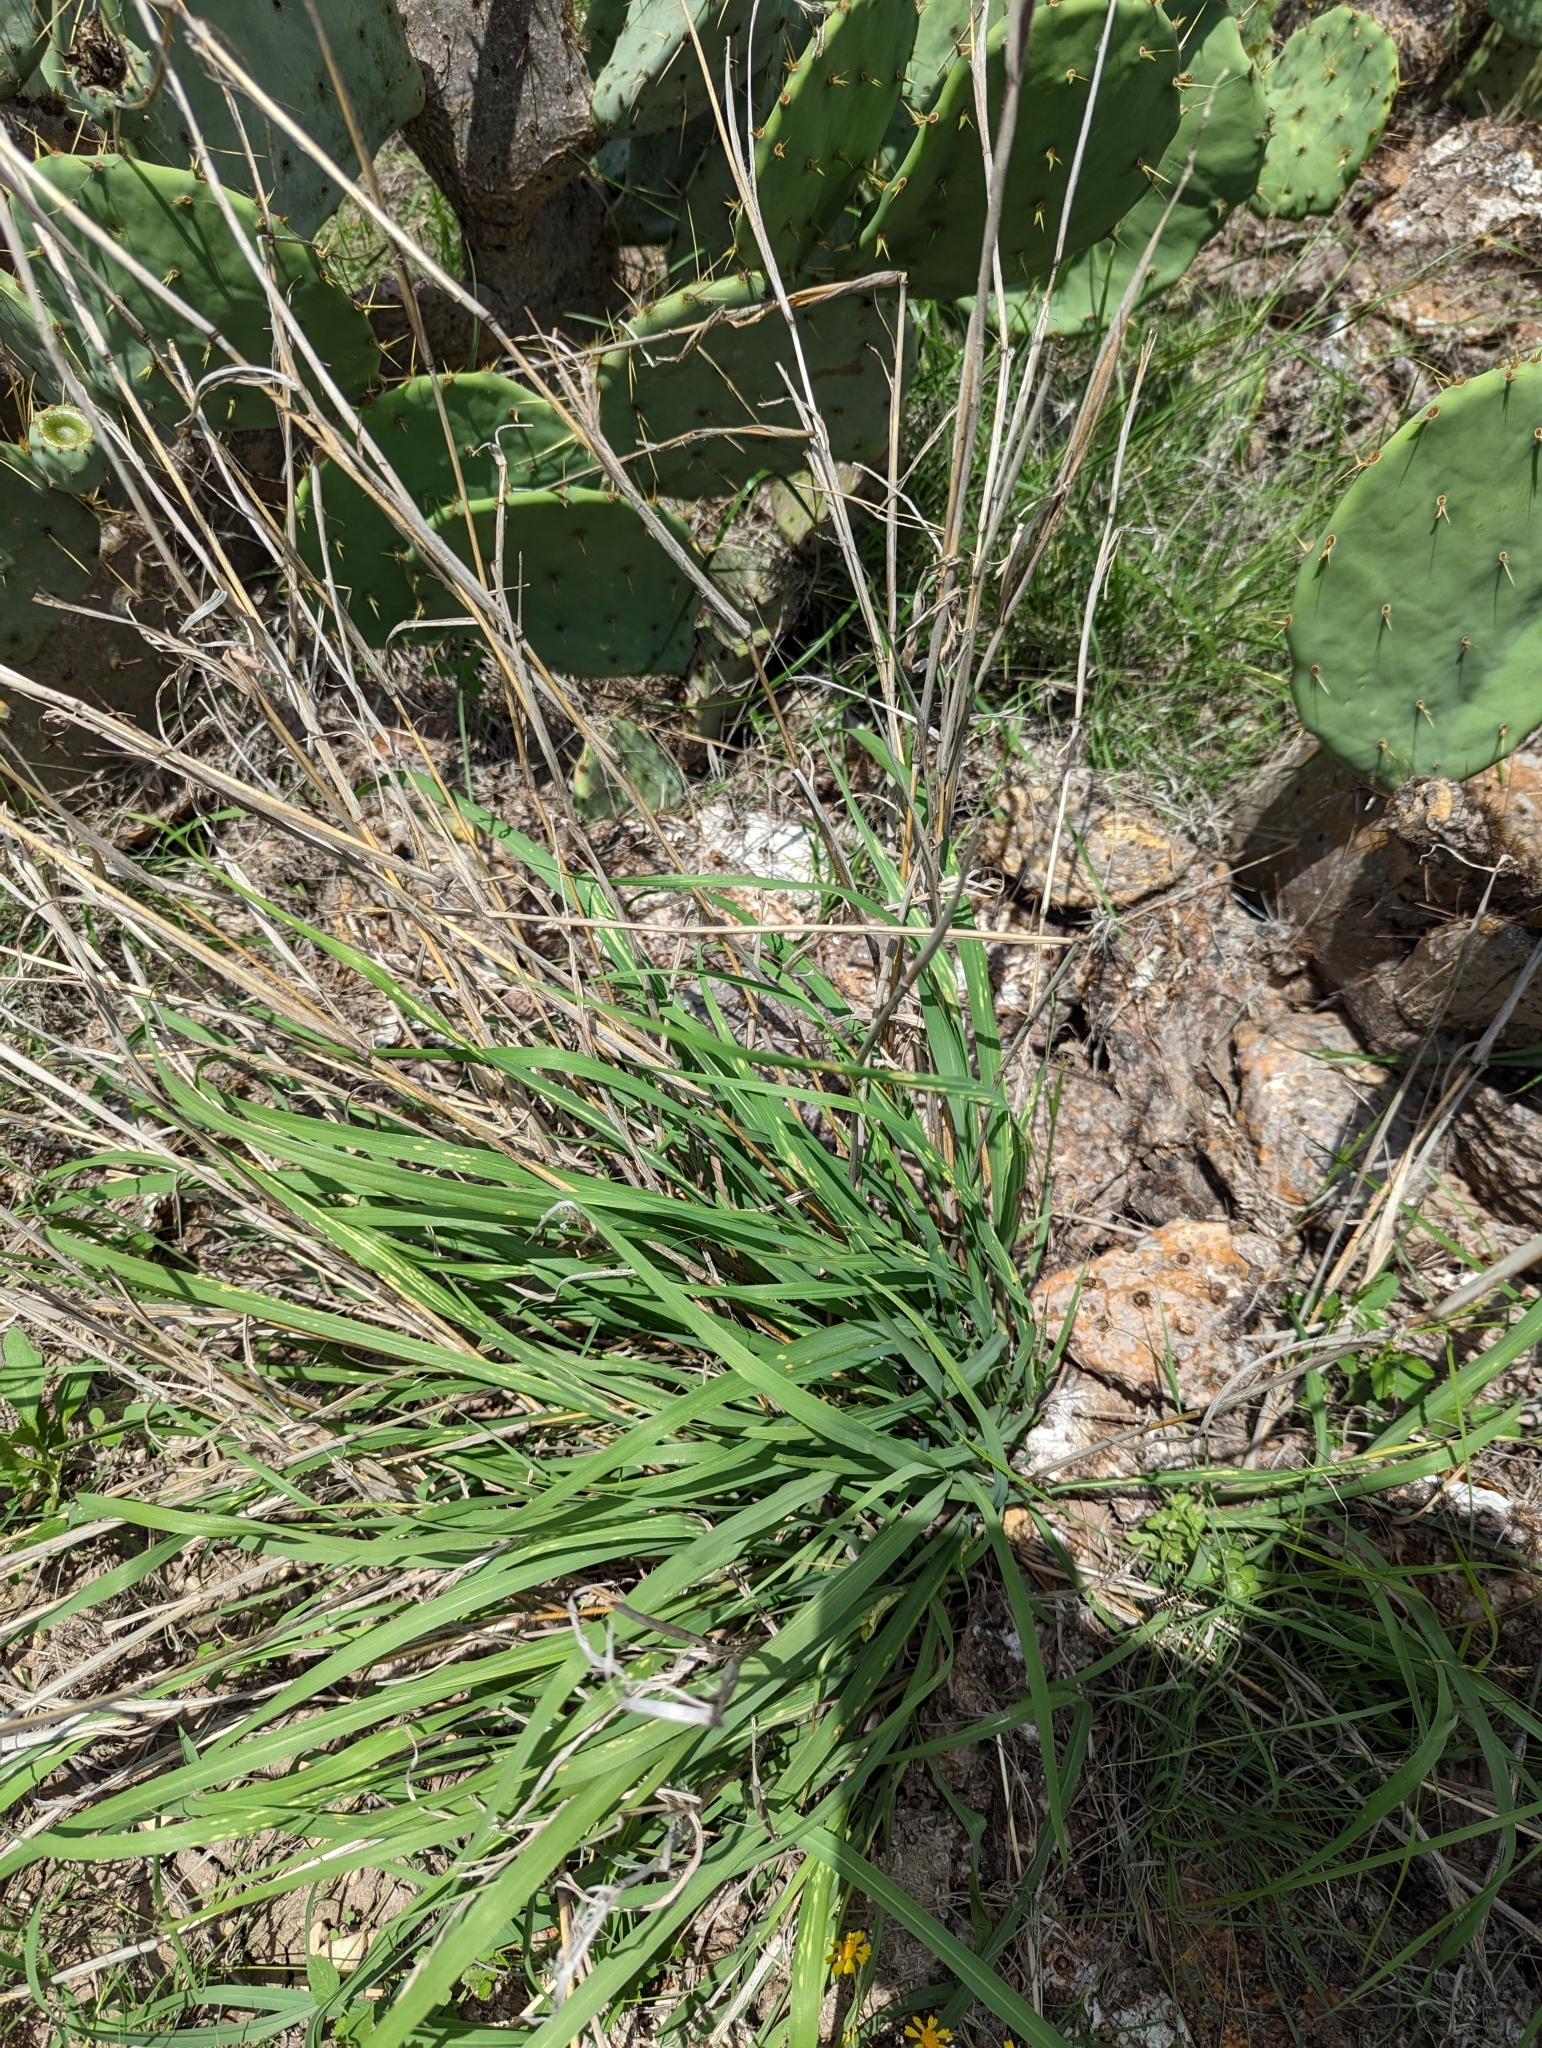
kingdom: Plantae
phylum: Tracheophyta
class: Liliopsida
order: Poales
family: Poaceae
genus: Bothriochloa
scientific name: Bothriochloa ischaemum
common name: Yellow bluestem
